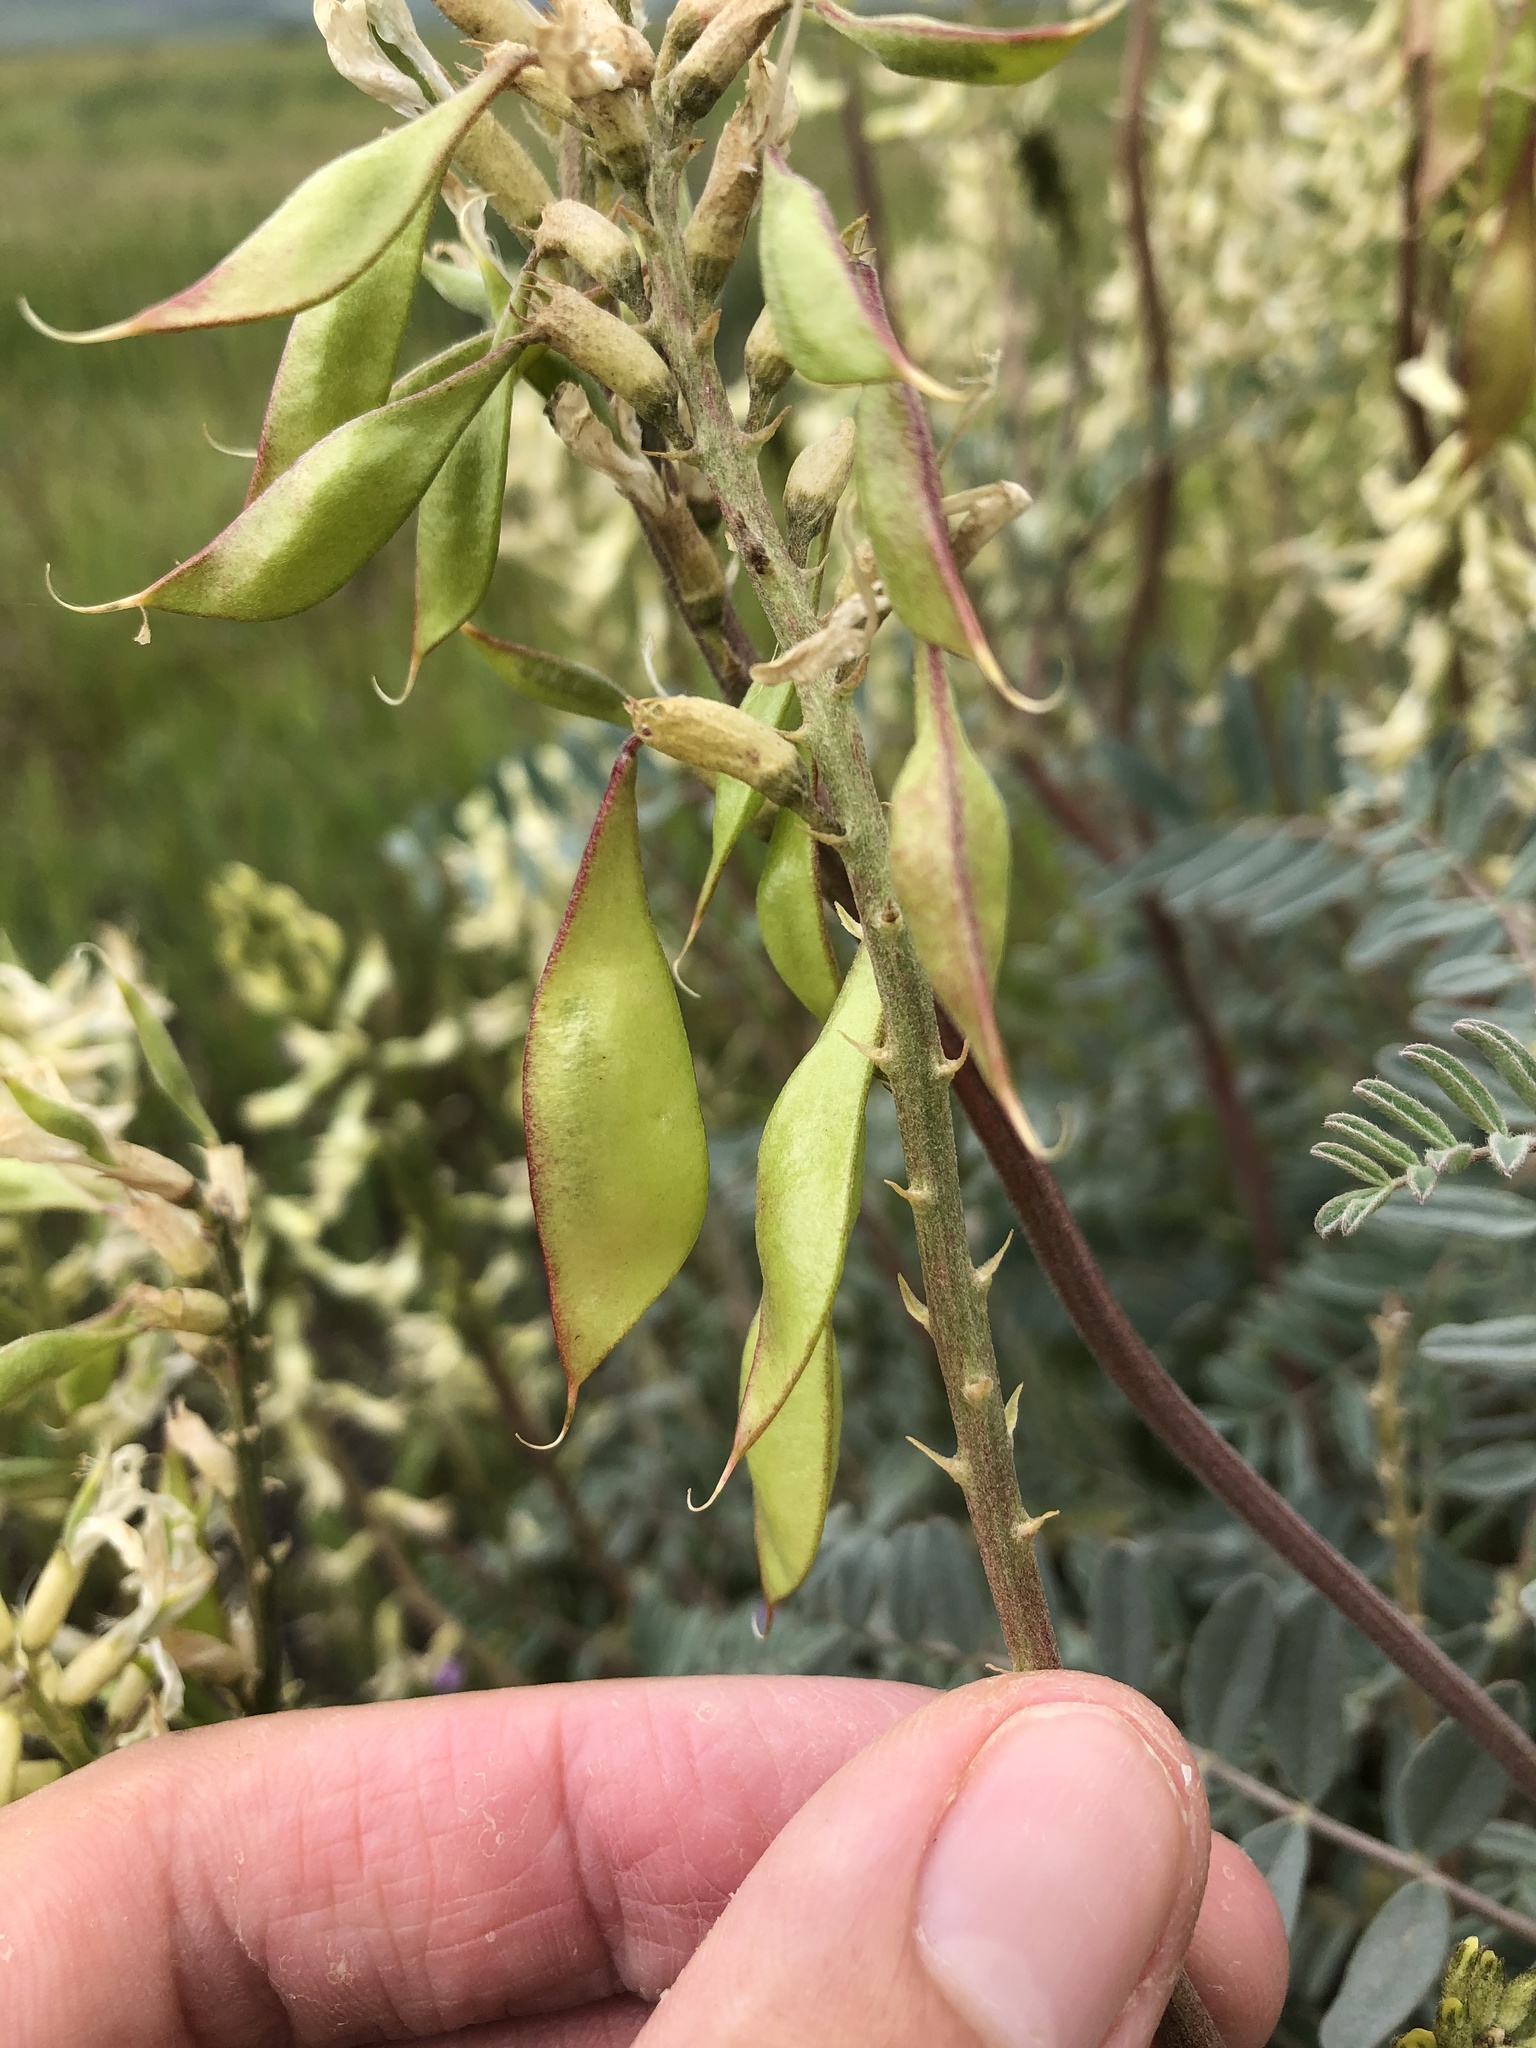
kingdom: Plantae
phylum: Tracheophyta
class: Magnoliopsida
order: Fabales
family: Fabaceae
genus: Astragalus
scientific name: Astragalus oxyphysus
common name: Stanislaus milk-vetch
